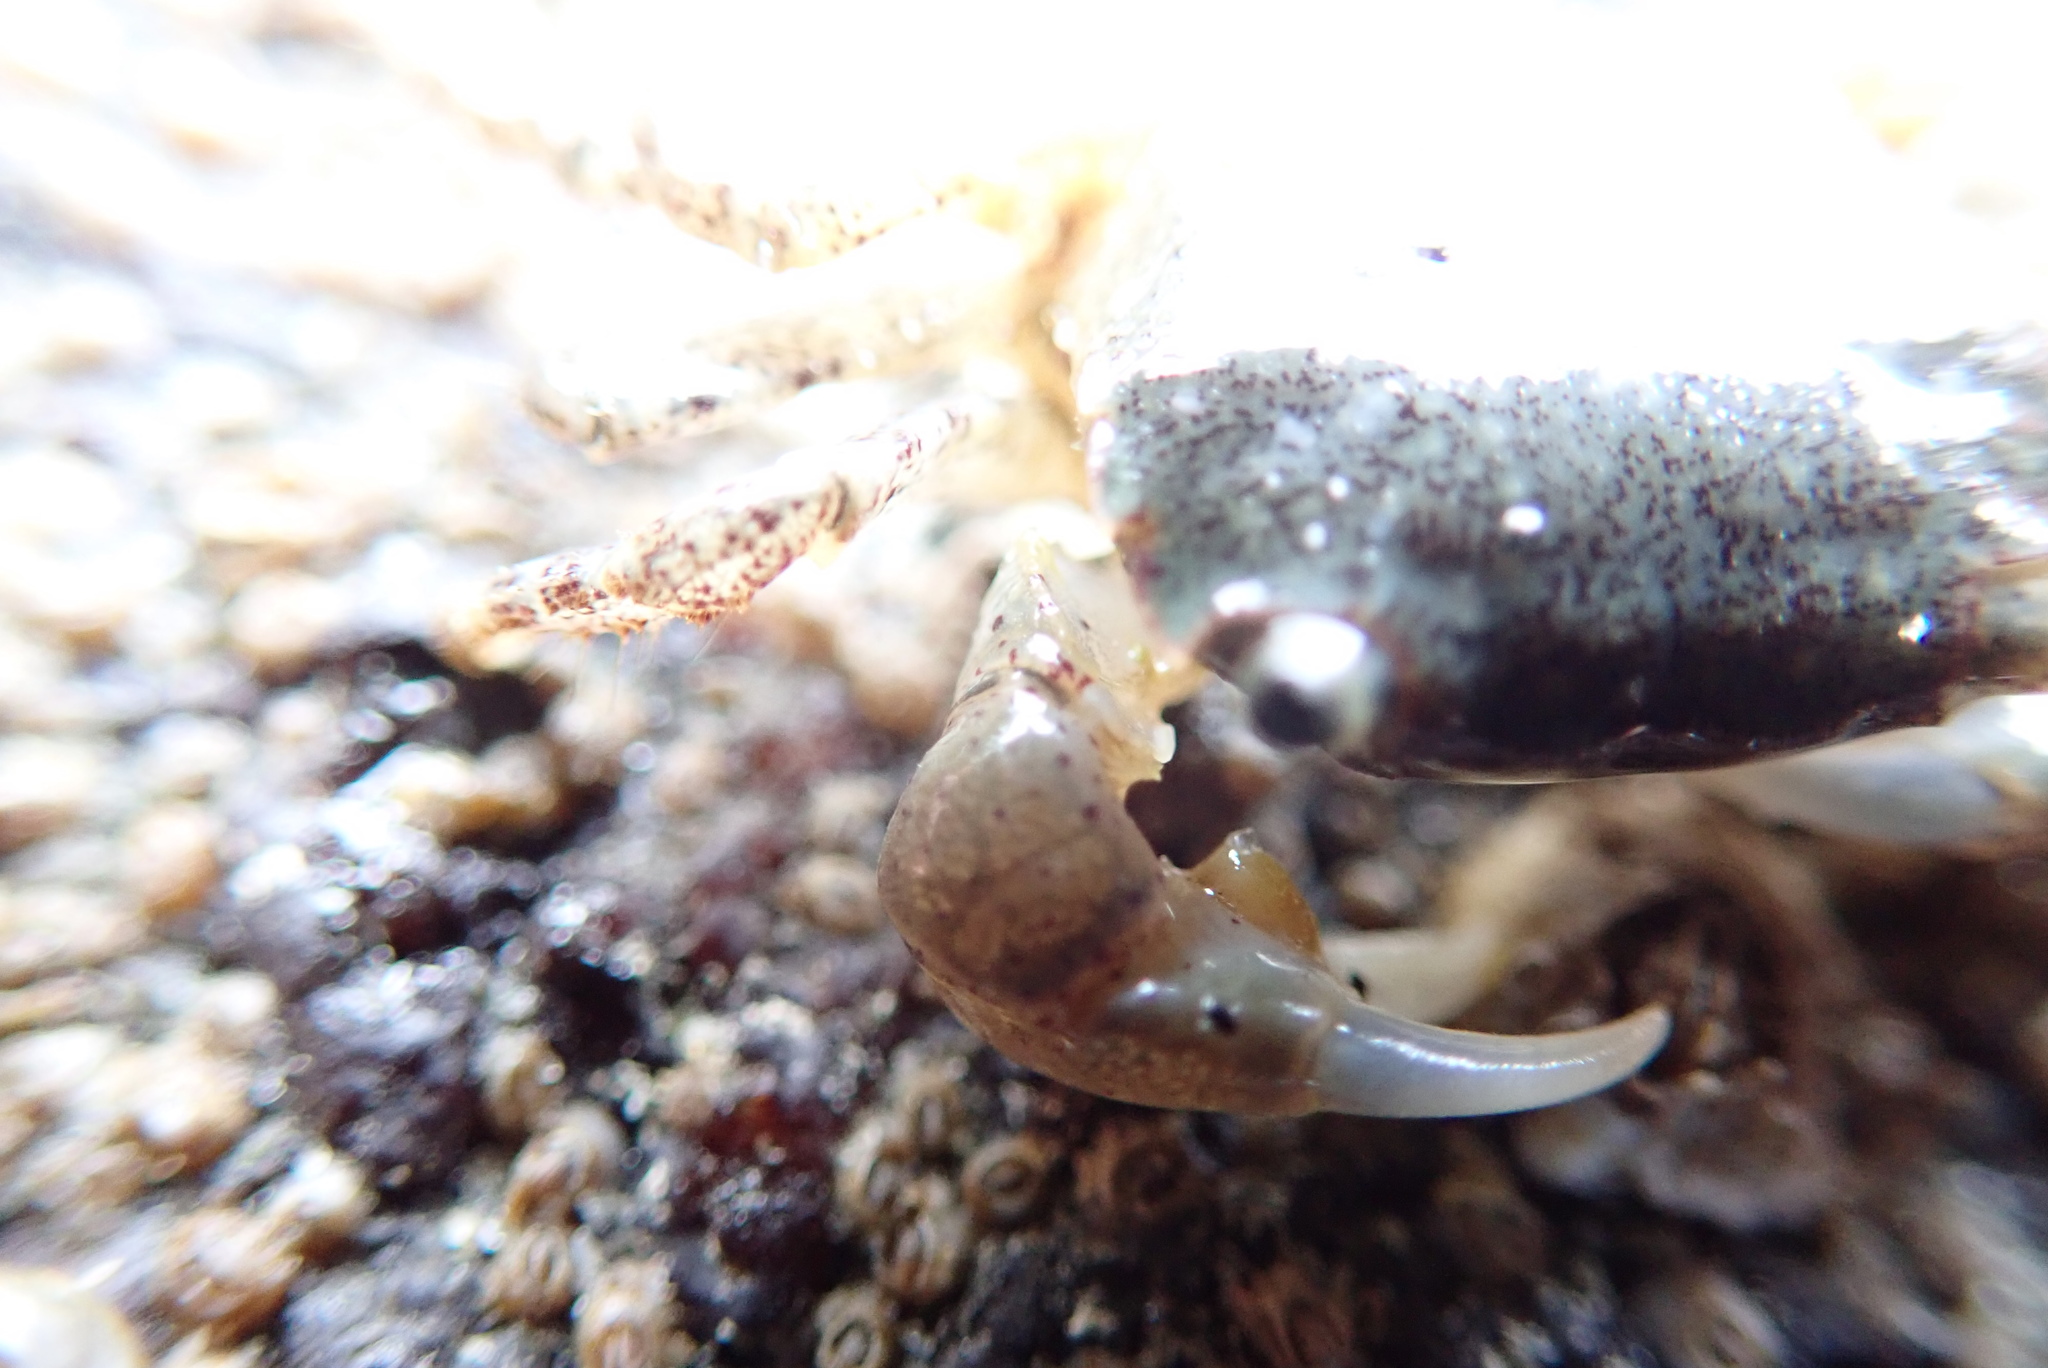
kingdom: Animalia
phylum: Arthropoda
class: Malacostraca
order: Decapoda
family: Varunidae
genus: Hemigrapsus
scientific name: Hemigrapsus oregonensis
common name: Yellow shore crab
